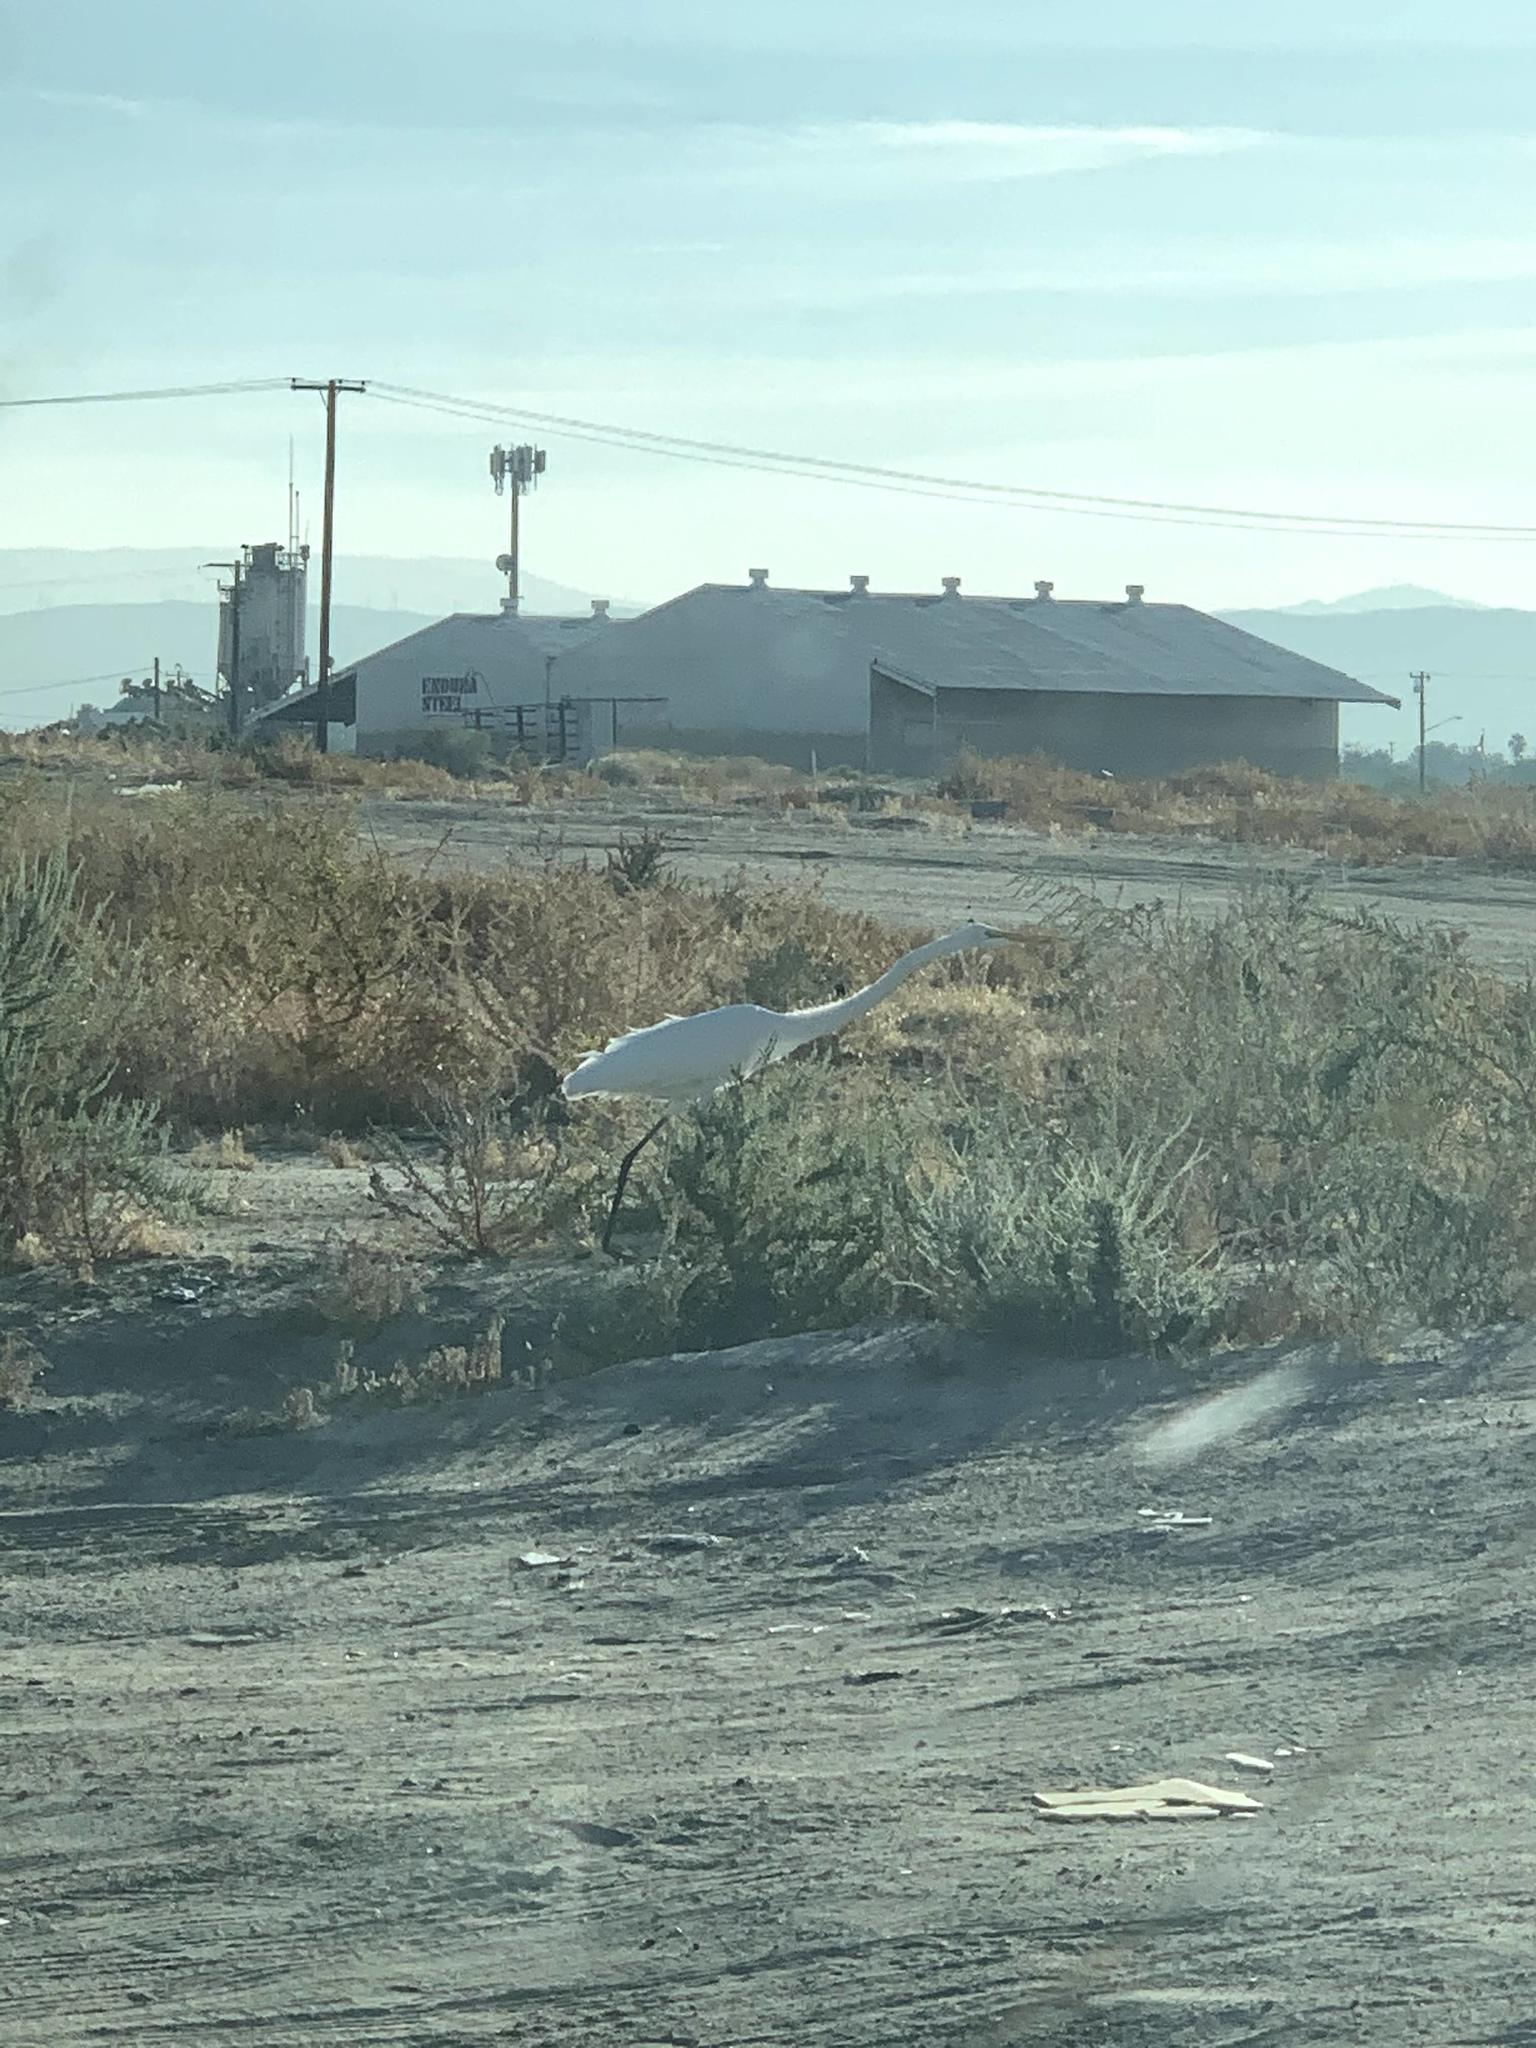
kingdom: Animalia
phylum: Chordata
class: Aves
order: Pelecaniformes
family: Ardeidae
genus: Ardea
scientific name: Ardea alba
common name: Great egret
